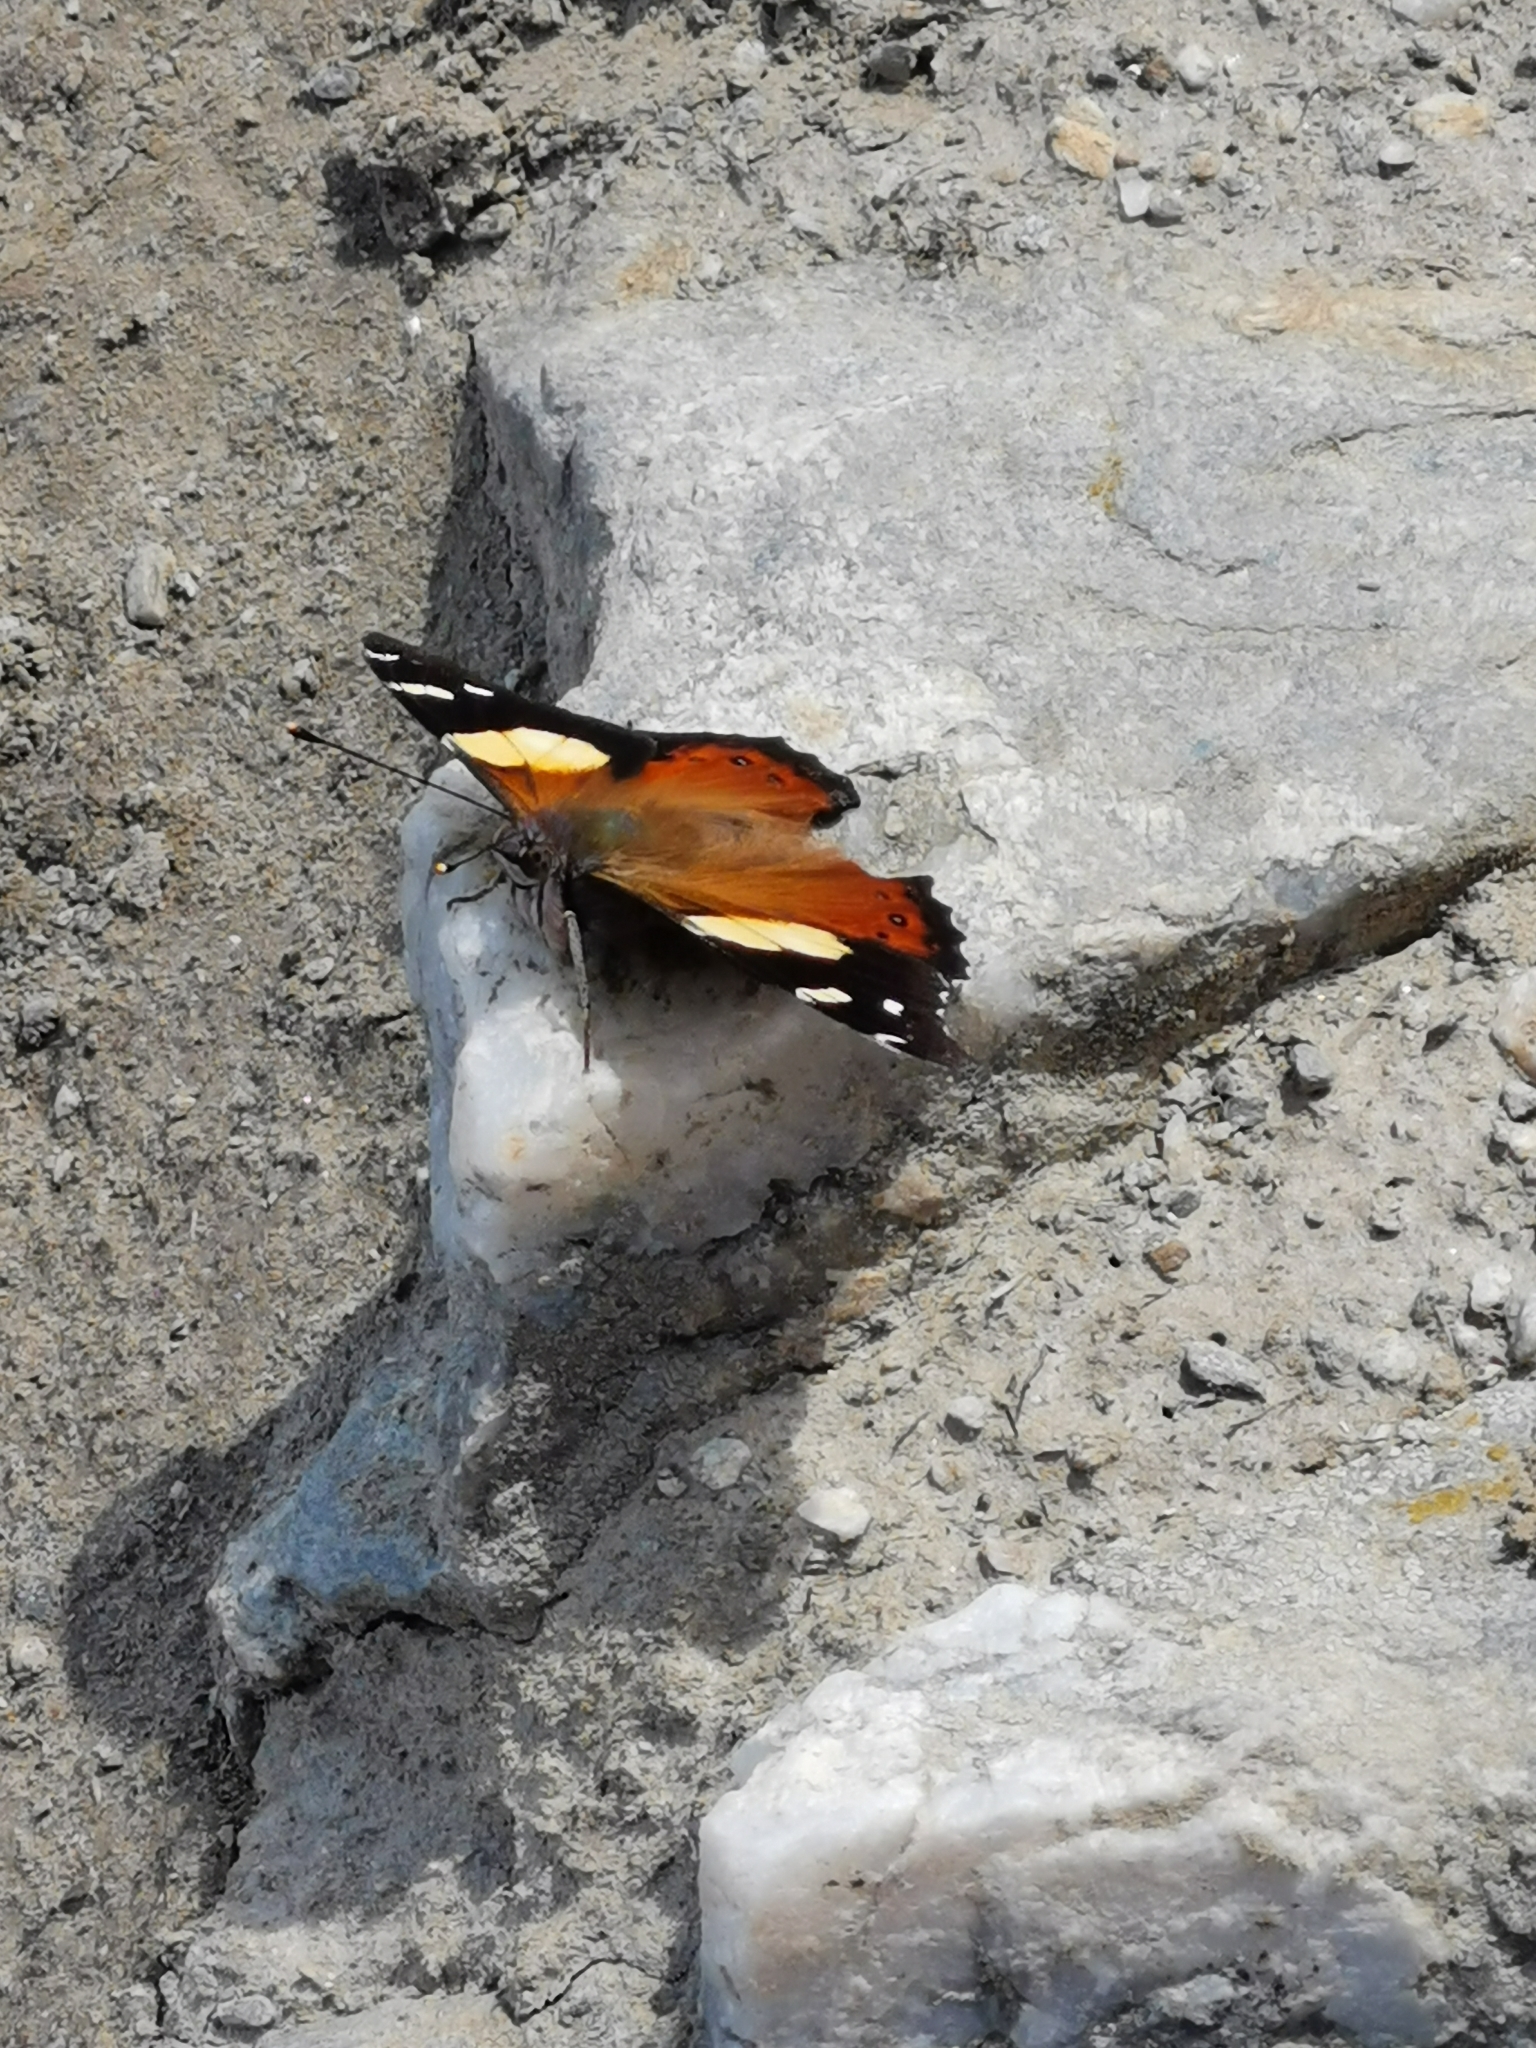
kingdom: Animalia
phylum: Arthropoda
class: Insecta
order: Lepidoptera
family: Nymphalidae
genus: Vanessa
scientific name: Vanessa itea
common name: Yellow admiral
